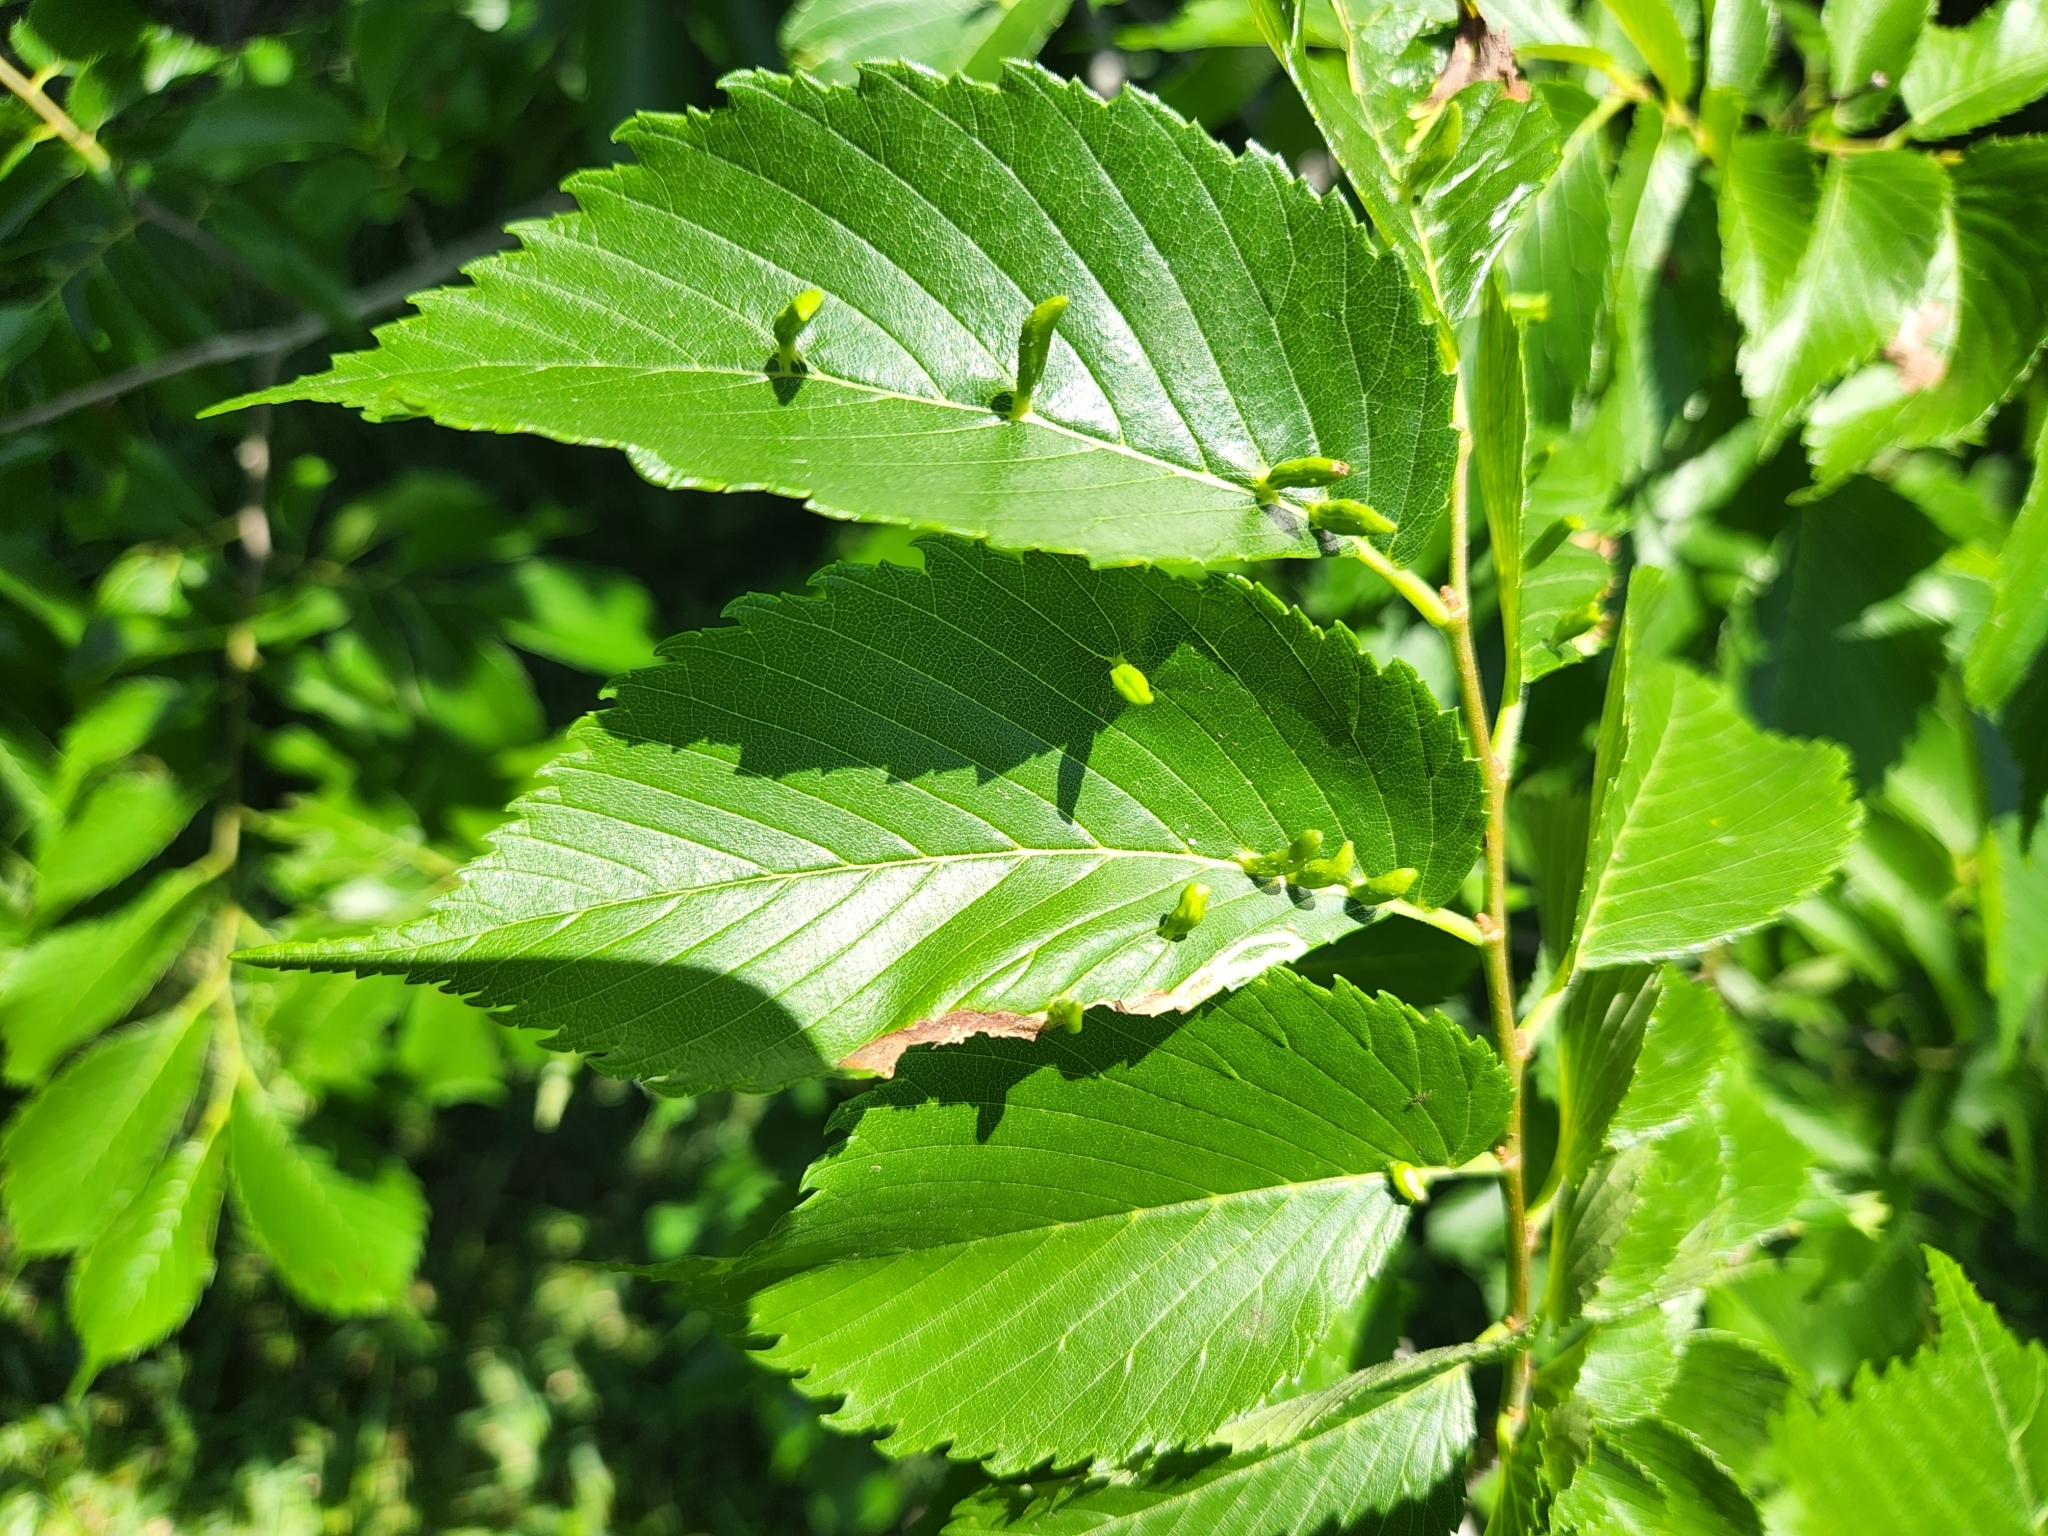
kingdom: Animalia
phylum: Arthropoda
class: Arachnida
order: Trombidiformes
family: Eriophyidae
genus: Aceria
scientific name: Aceria
